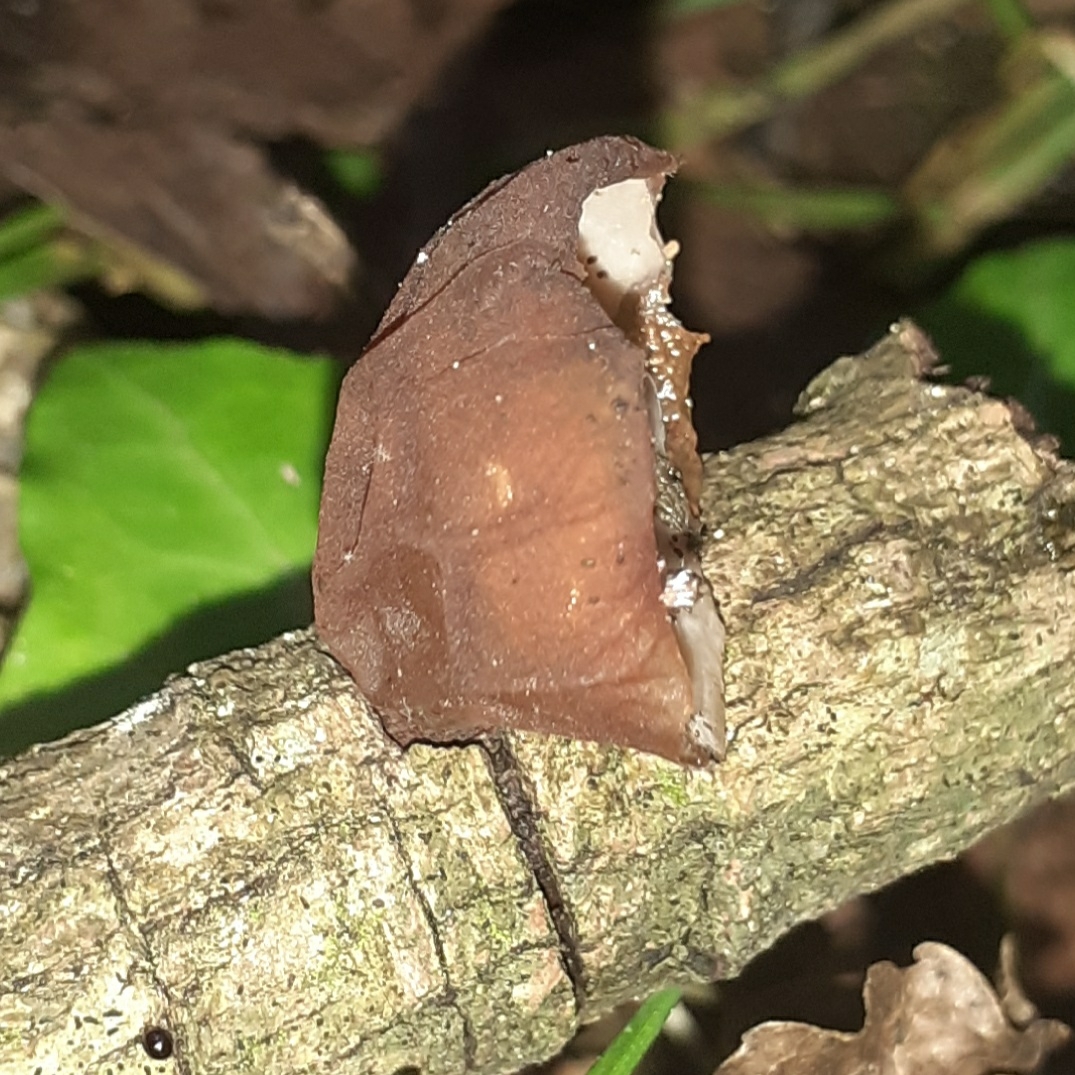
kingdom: Fungi
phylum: Basidiomycota
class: Agaricomycetes
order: Auriculariales
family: Auriculariaceae
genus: Auricularia
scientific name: Auricularia auricula-judae
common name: Jelly ear
